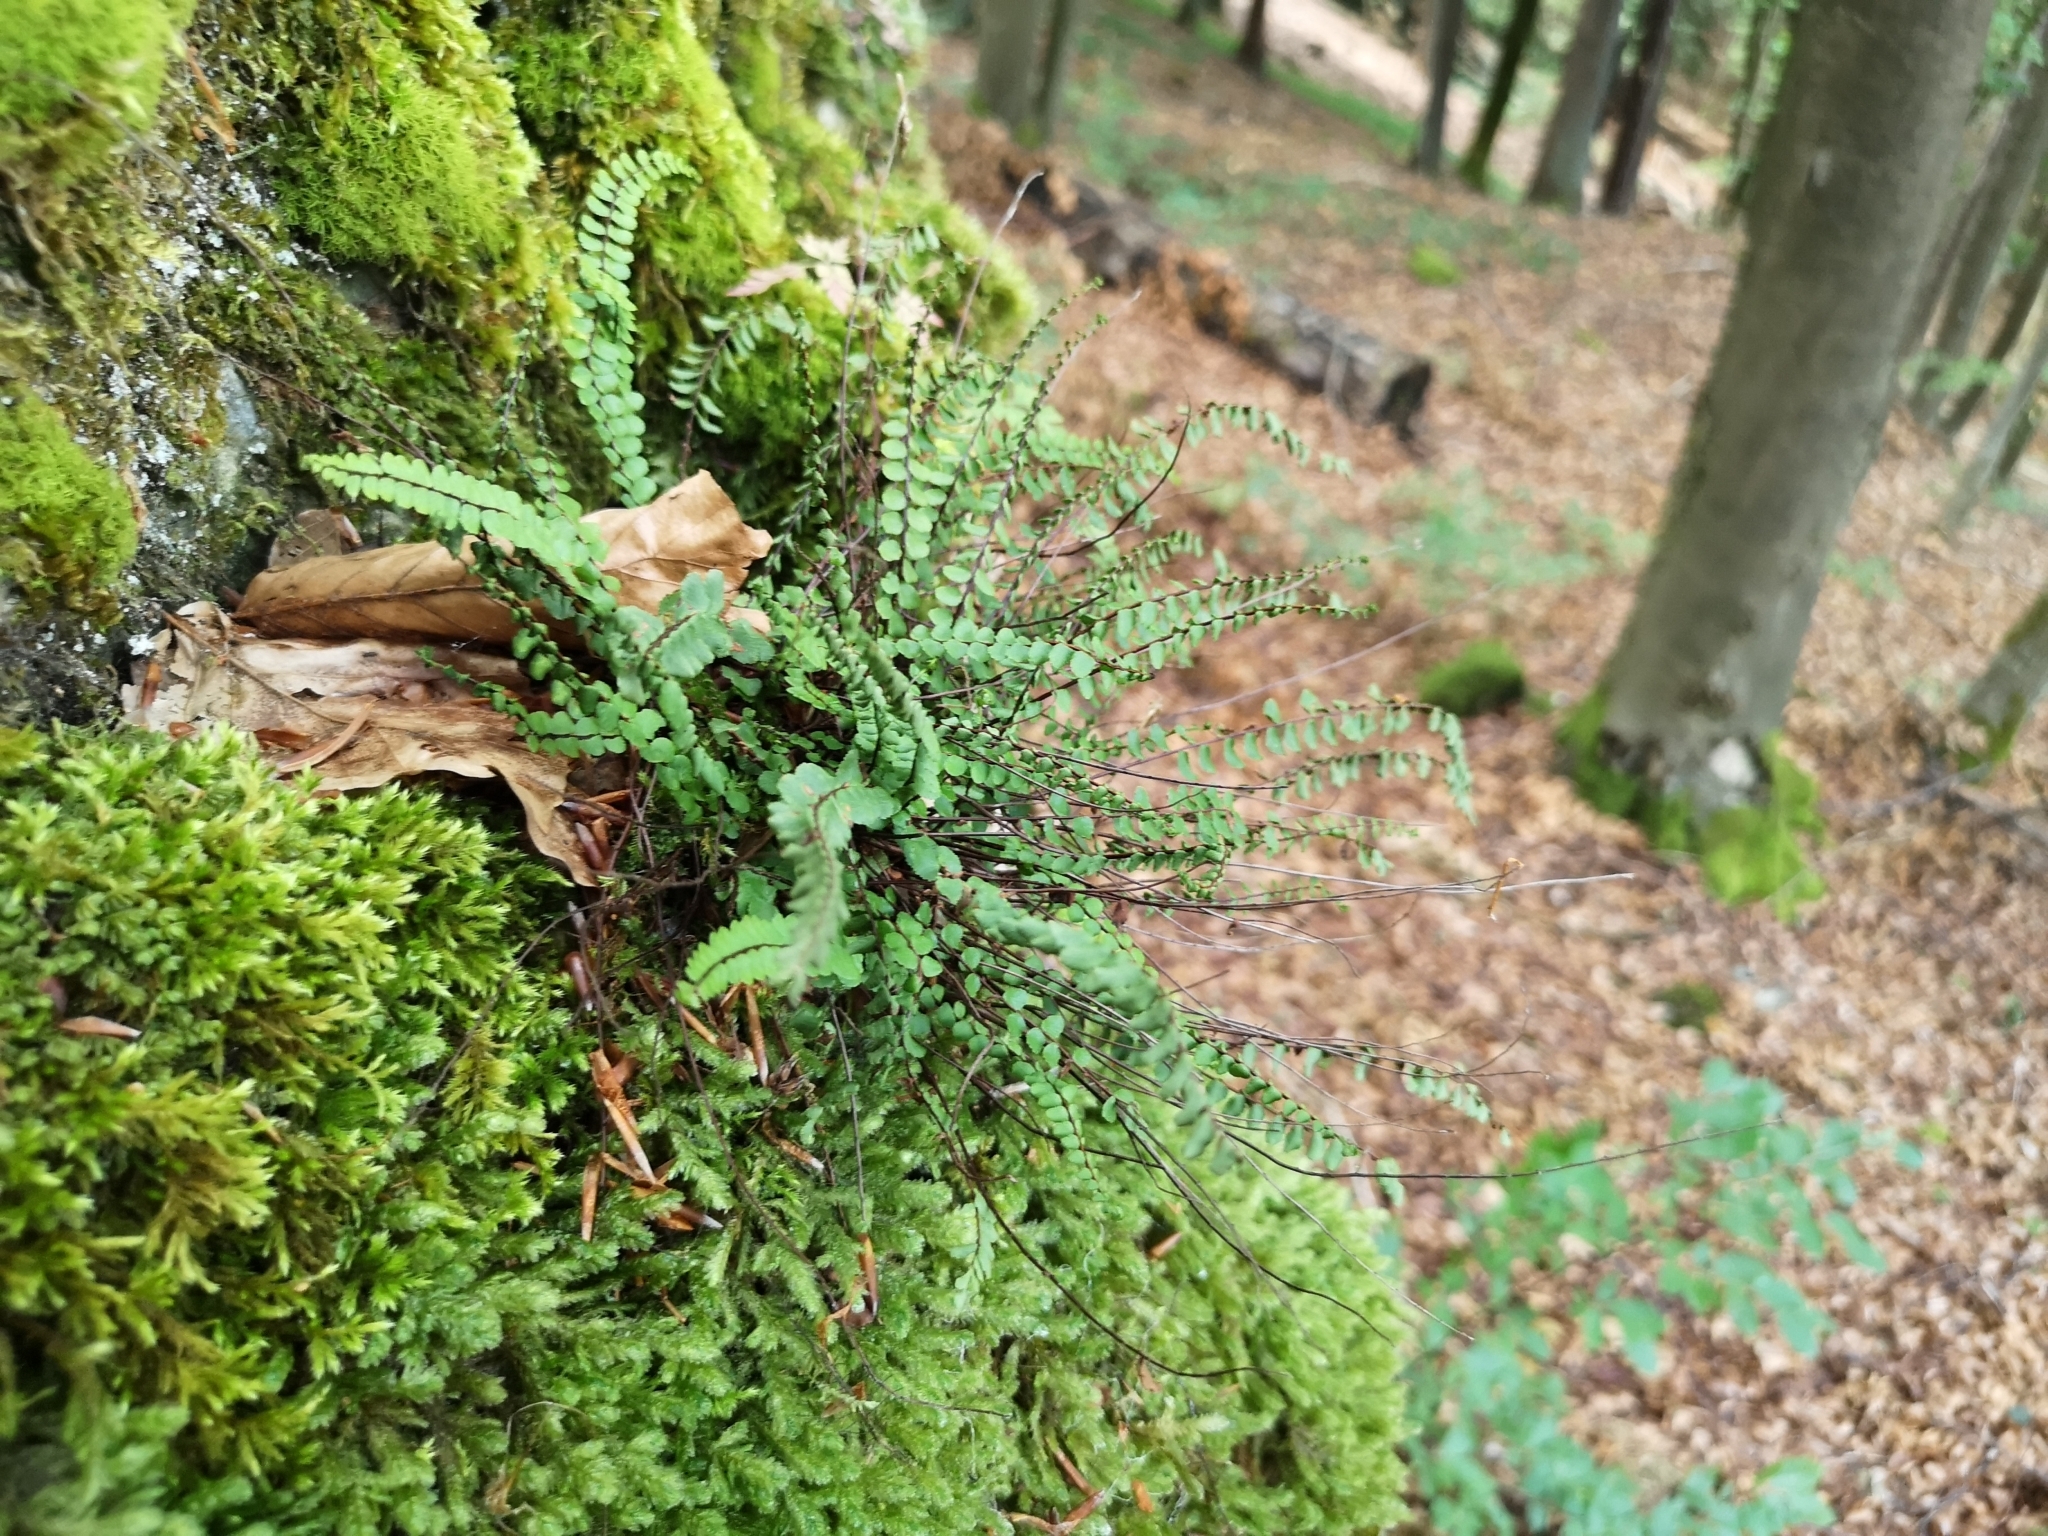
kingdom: Plantae
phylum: Tracheophyta
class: Polypodiopsida
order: Polypodiales
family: Aspleniaceae
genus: Asplenium
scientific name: Asplenium trichomanes
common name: Maidenhair spleenwort
